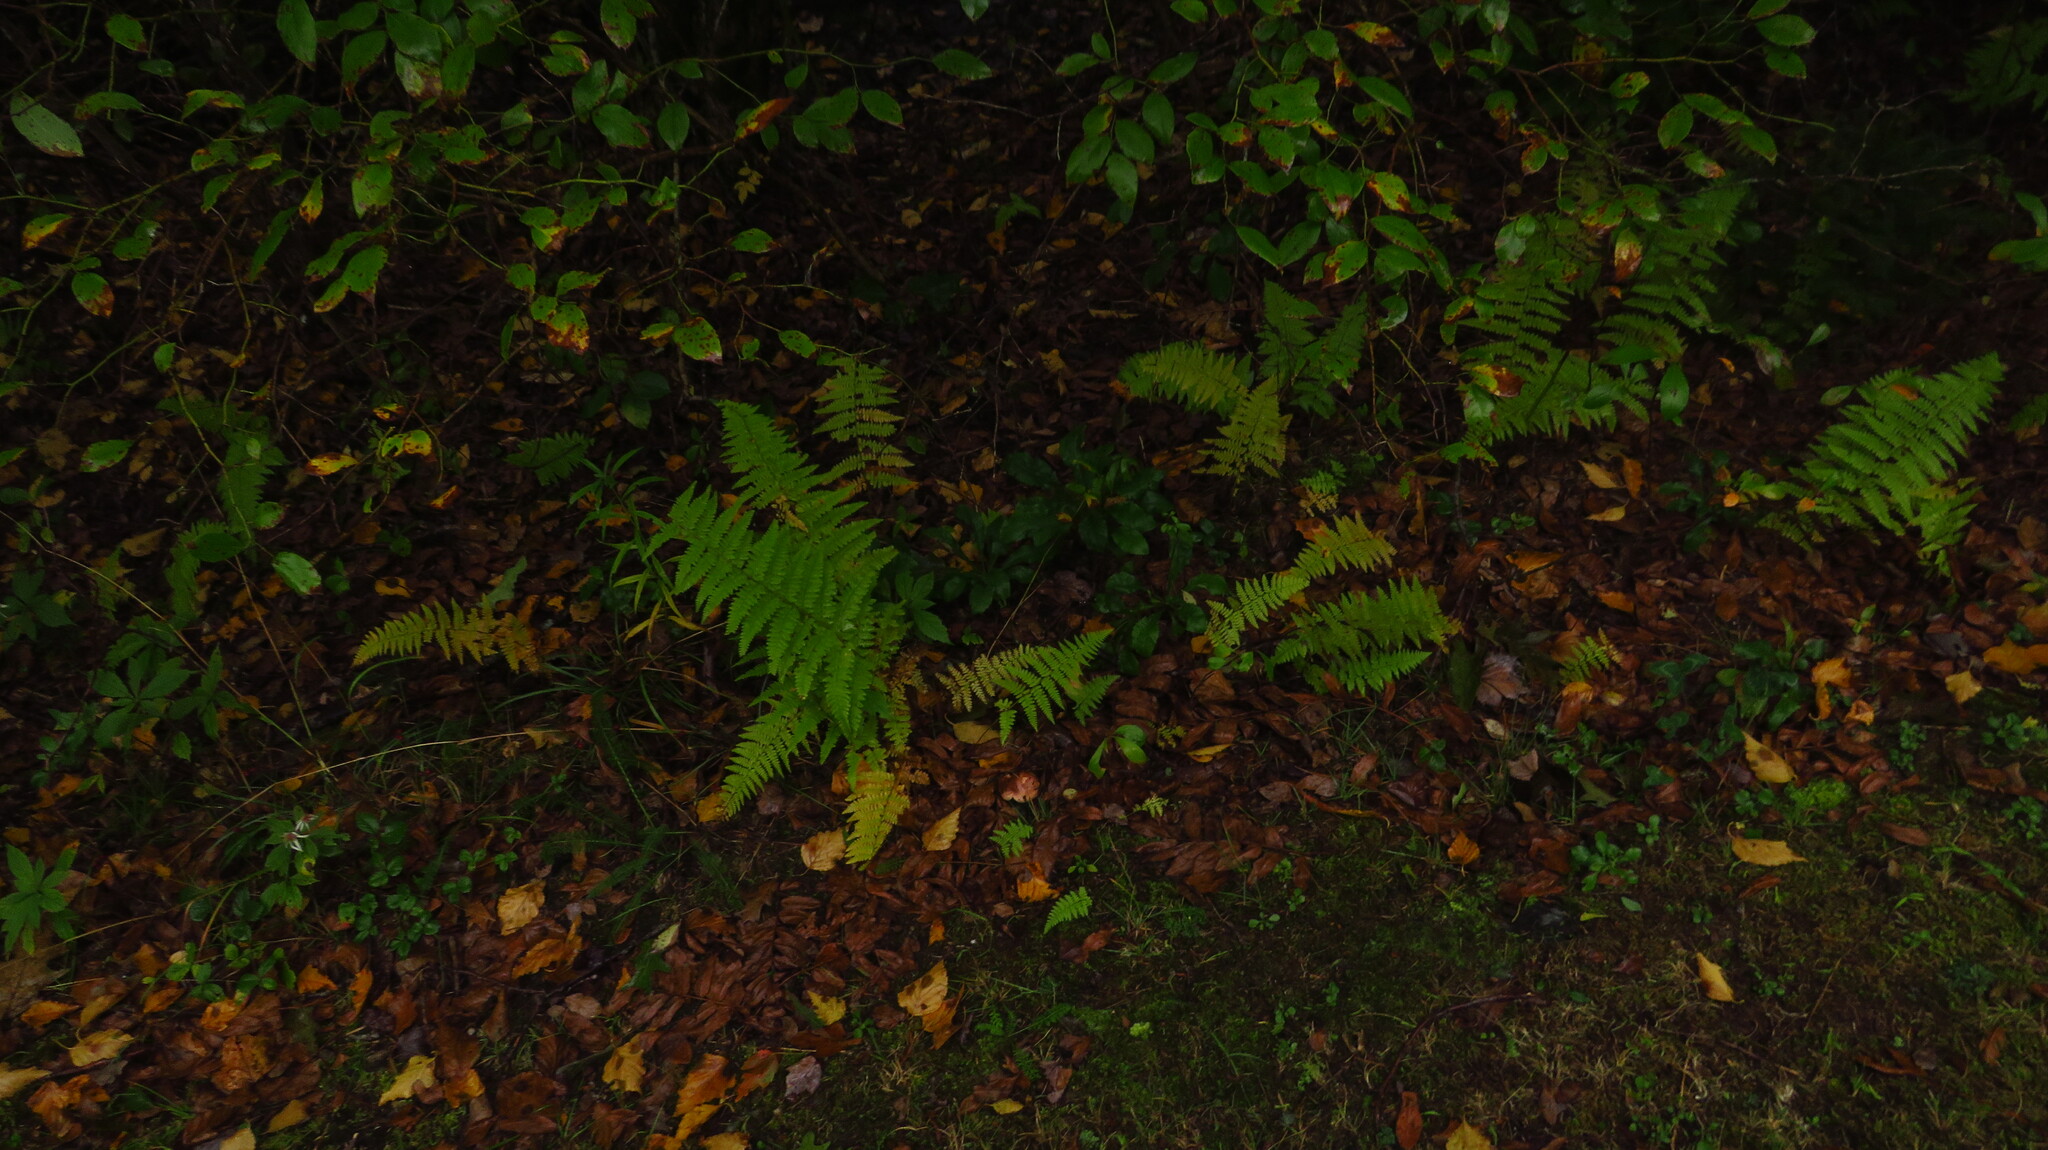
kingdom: Plantae
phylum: Tracheophyta
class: Polypodiopsida
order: Polypodiales
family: Dennstaedtiaceae
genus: Sitobolium
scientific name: Sitobolium punctilobum
